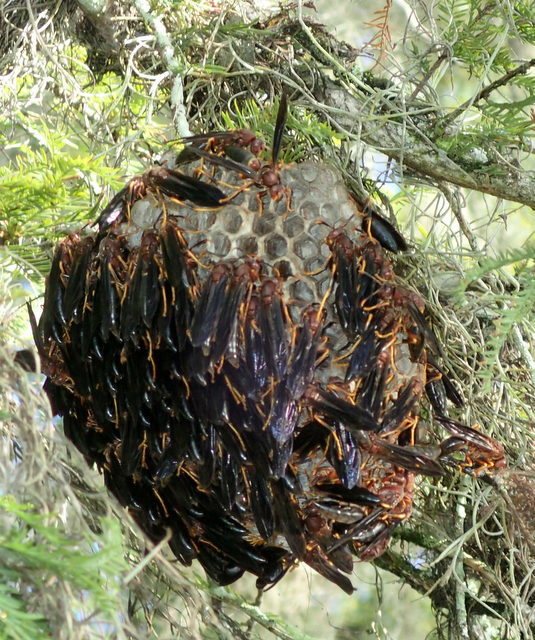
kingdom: Animalia
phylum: Arthropoda
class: Insecta
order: Hymenoptera
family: Eumenidae
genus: Polistes
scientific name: Polistes annularis
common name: Ringed paper wasp
